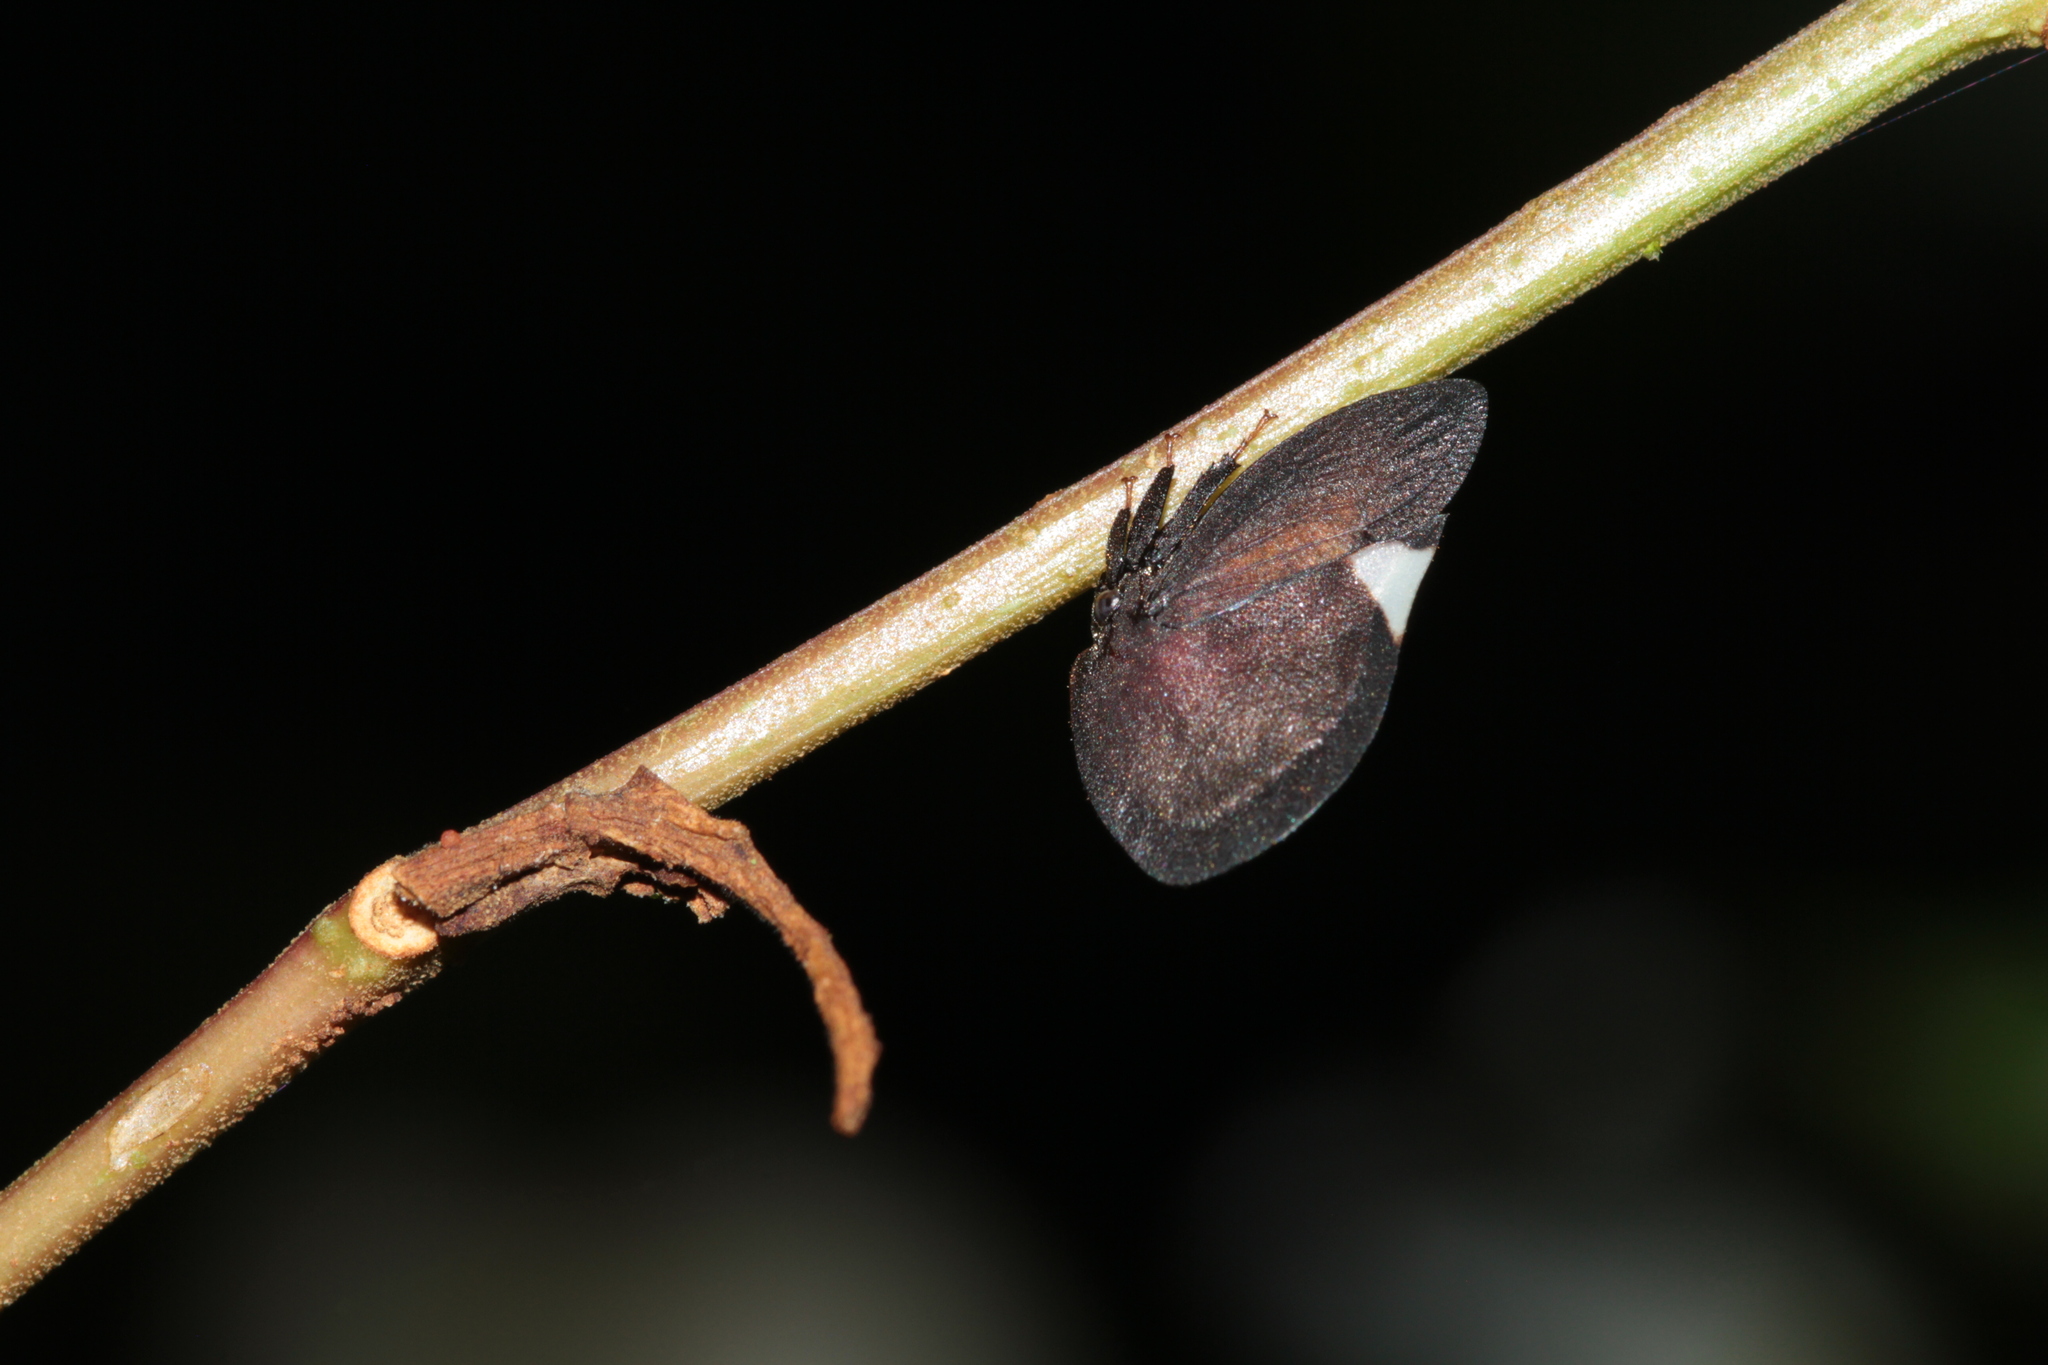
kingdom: Animalia
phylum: Arthropoda
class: Insecta
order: Hemiptera
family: Membracidae
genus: Membracis
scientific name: Membracis nigra
